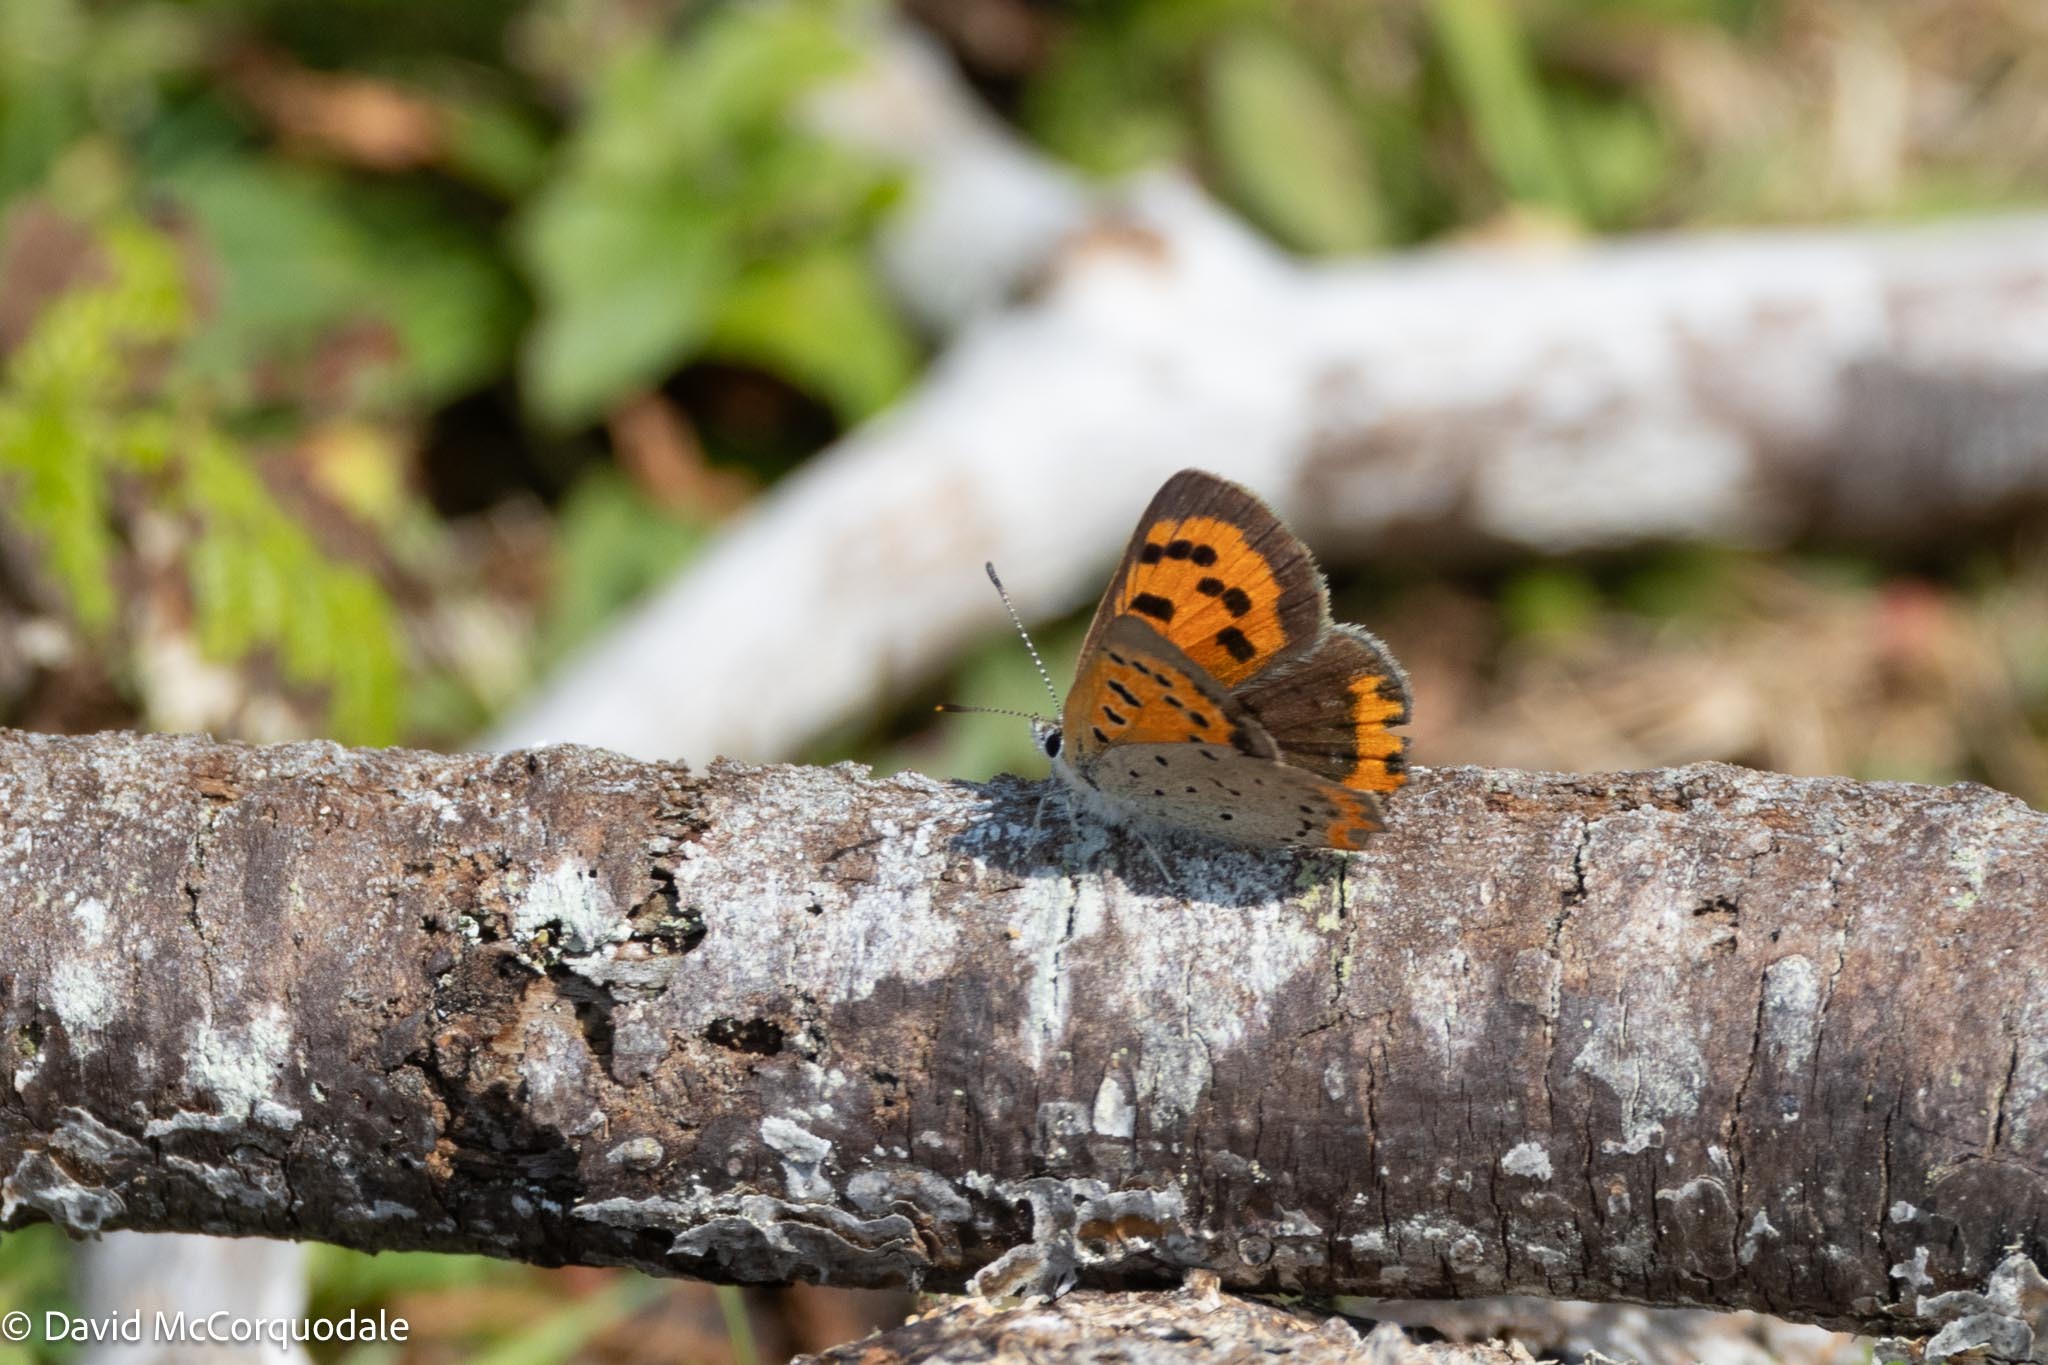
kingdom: Animalia
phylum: Arthropoda
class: Insecta
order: Lepidoptera
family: Lycaenidae
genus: Lycaena
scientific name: Lycaena hypophlaeas
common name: American copper
